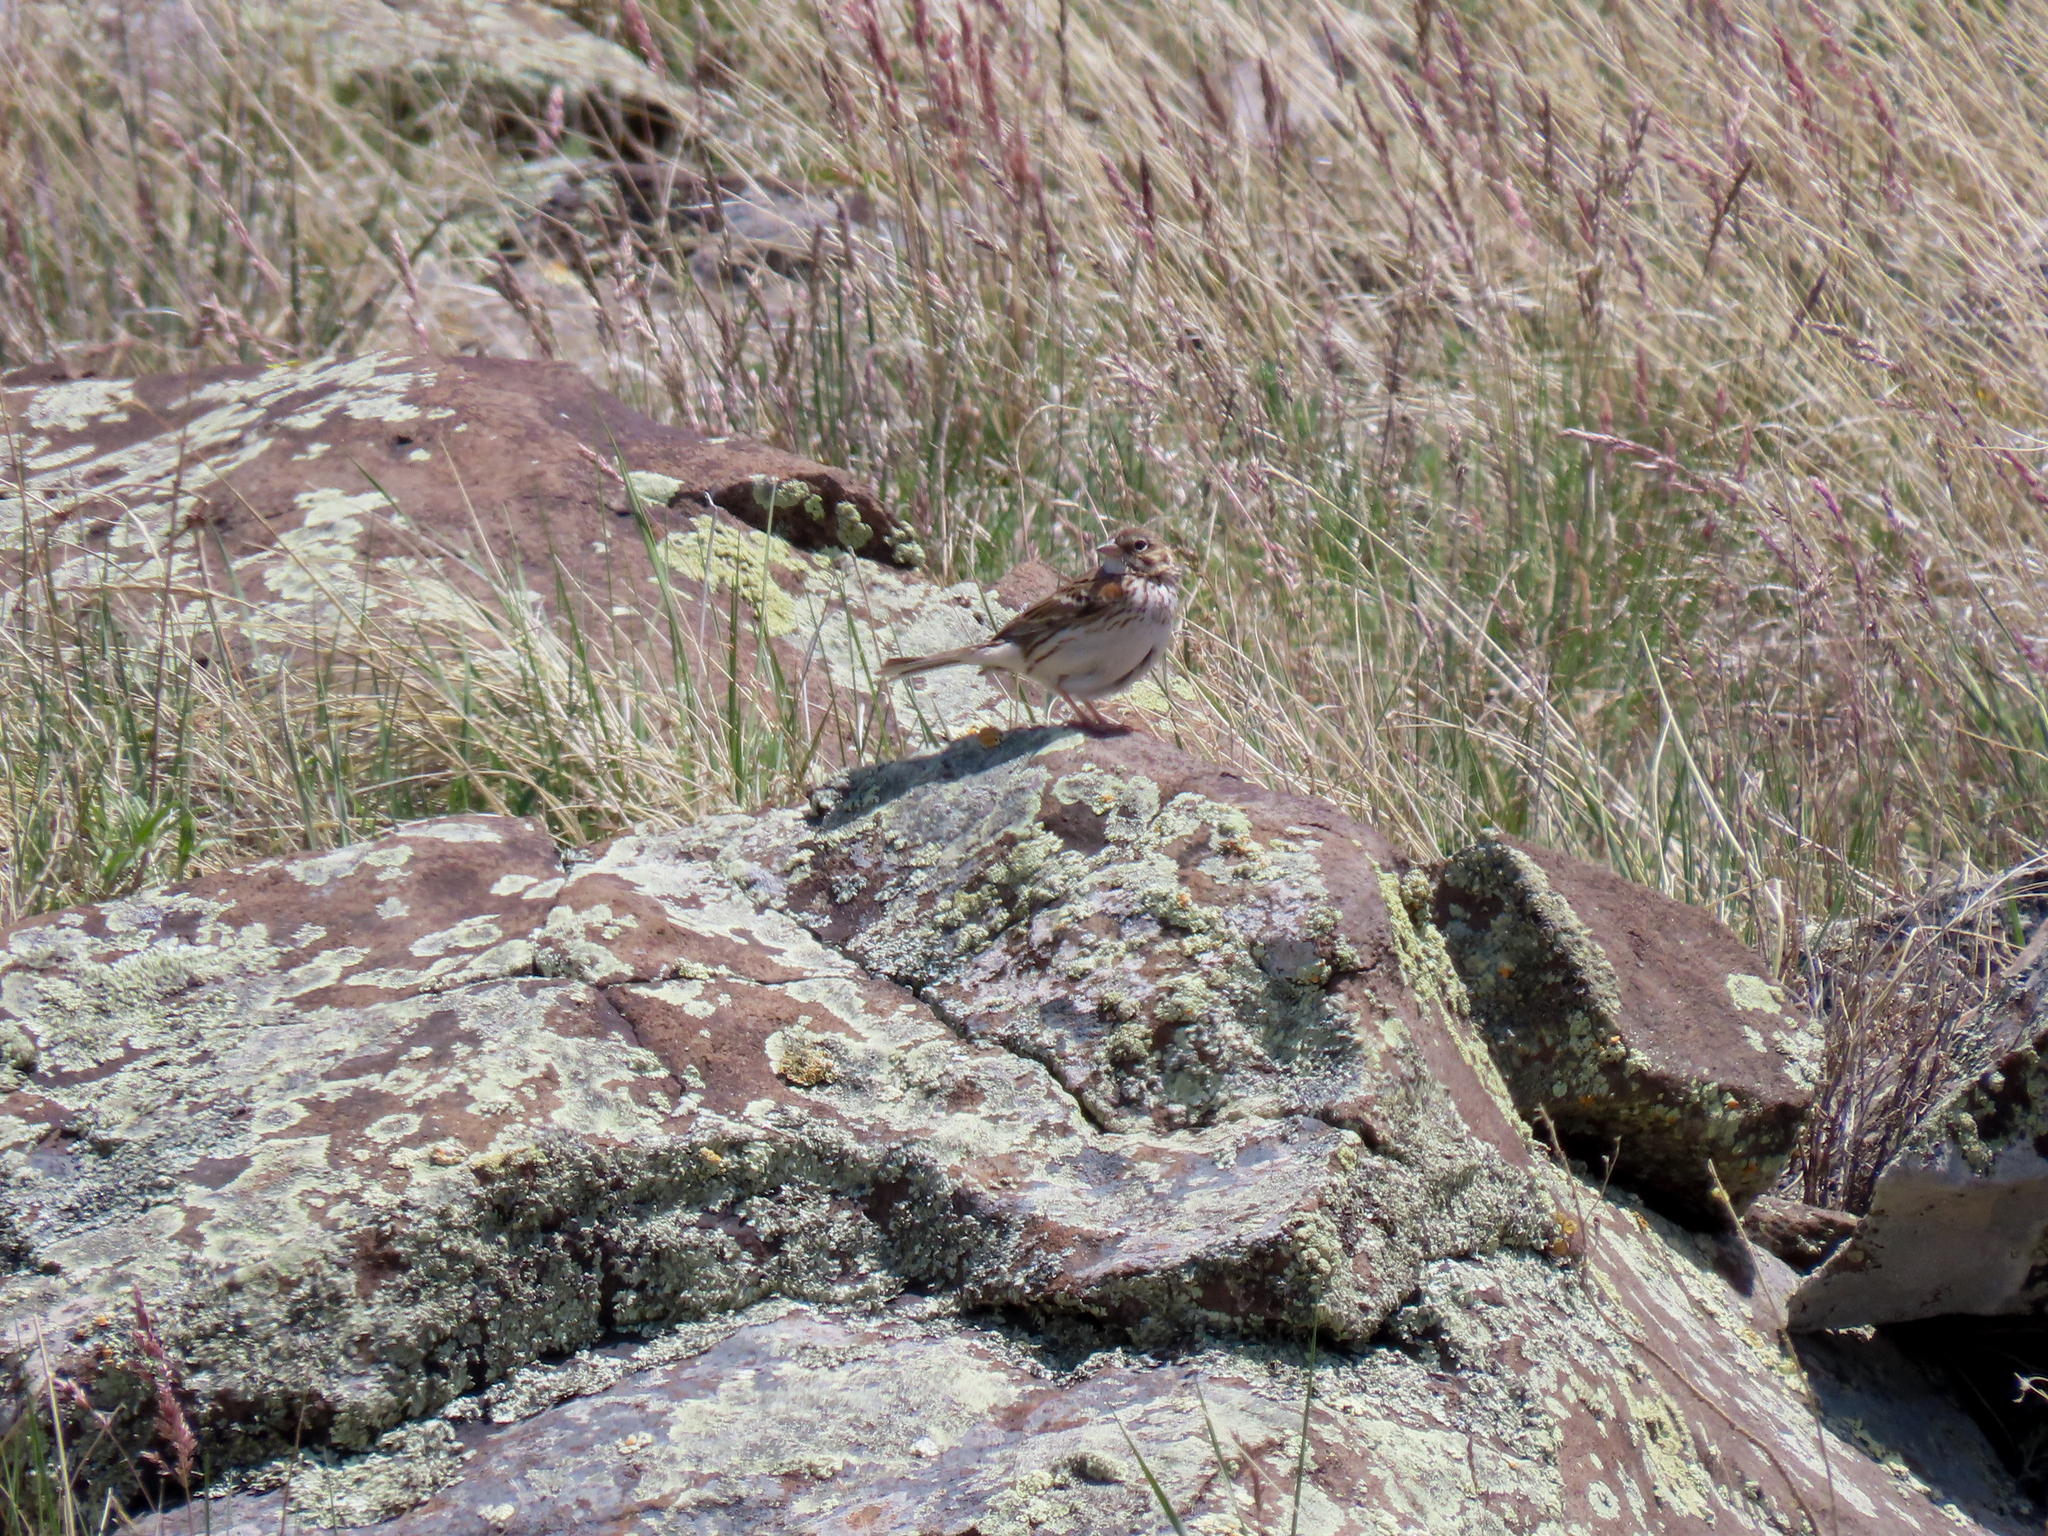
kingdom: Animalia
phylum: Chordata
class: Aves
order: Passeriformes
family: Passerellidae
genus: Pooecetes
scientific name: Pooecetes gramineus
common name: Vesper sparrow
